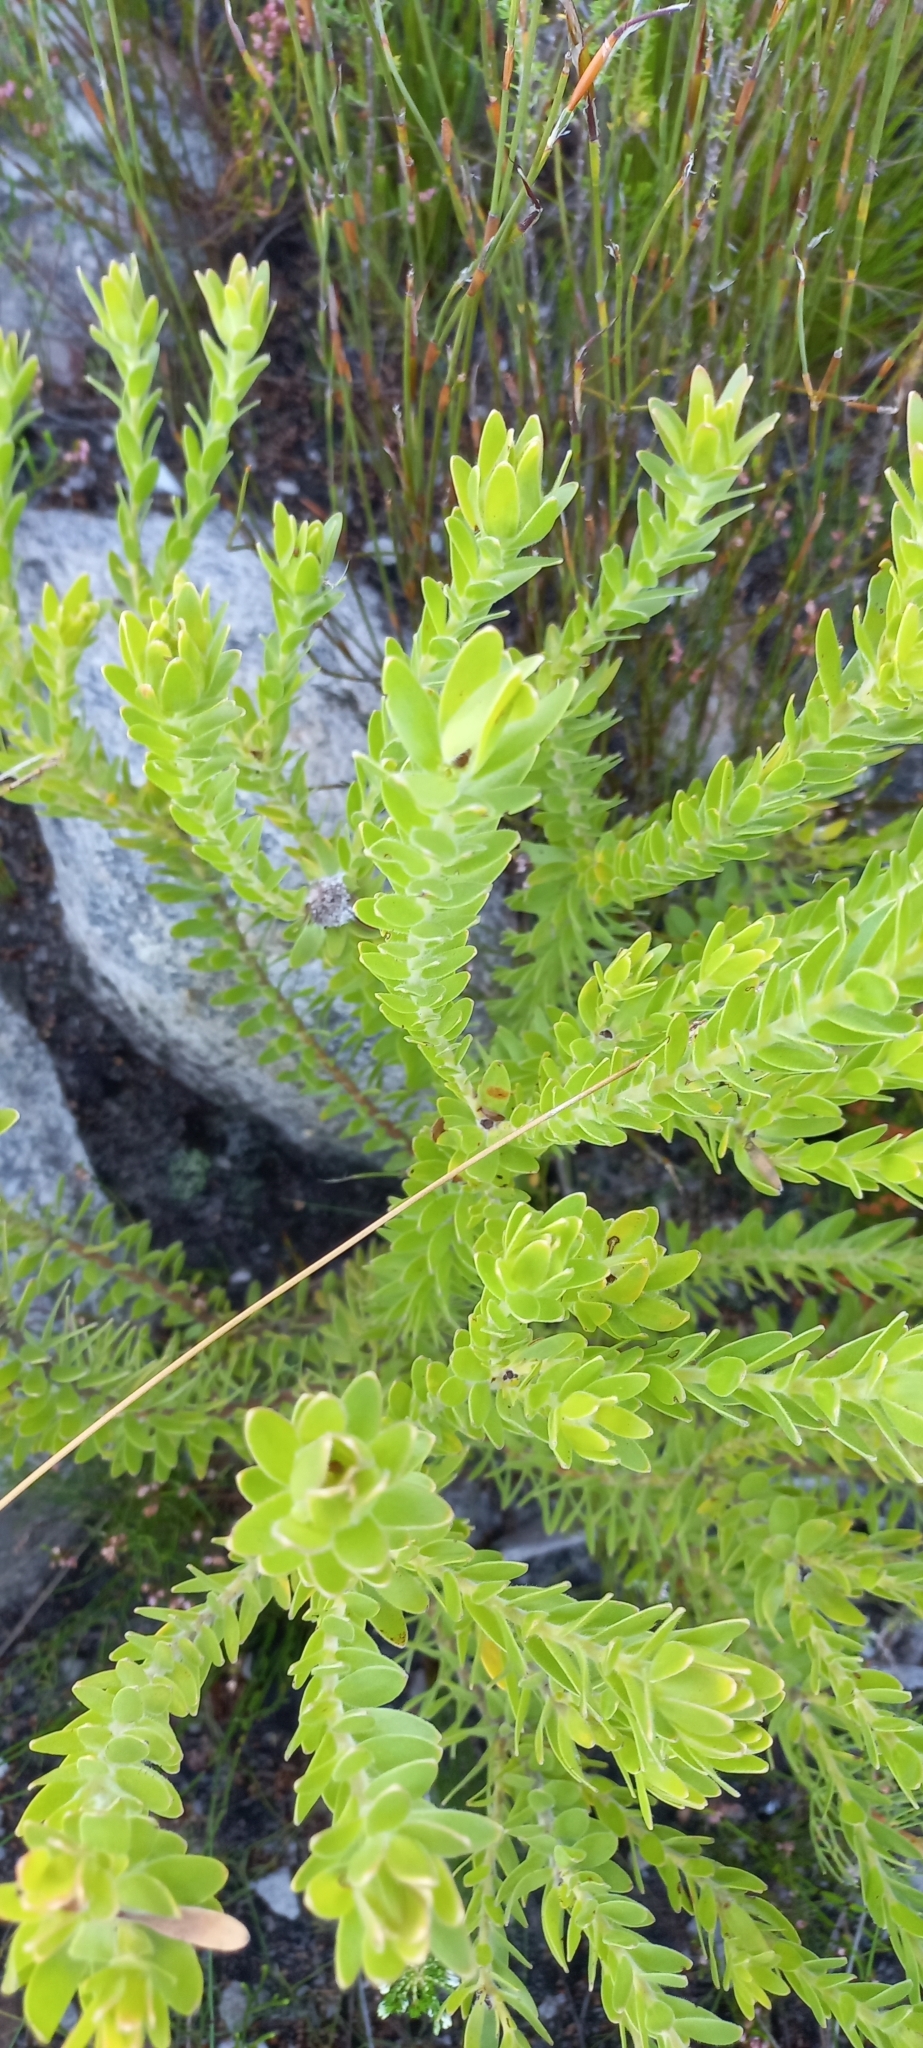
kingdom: Plantae
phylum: Tracheophyta
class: Magnoliopsida
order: Proteales
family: Proteaceae
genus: Diastella
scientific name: Diastella thymelaeoides
